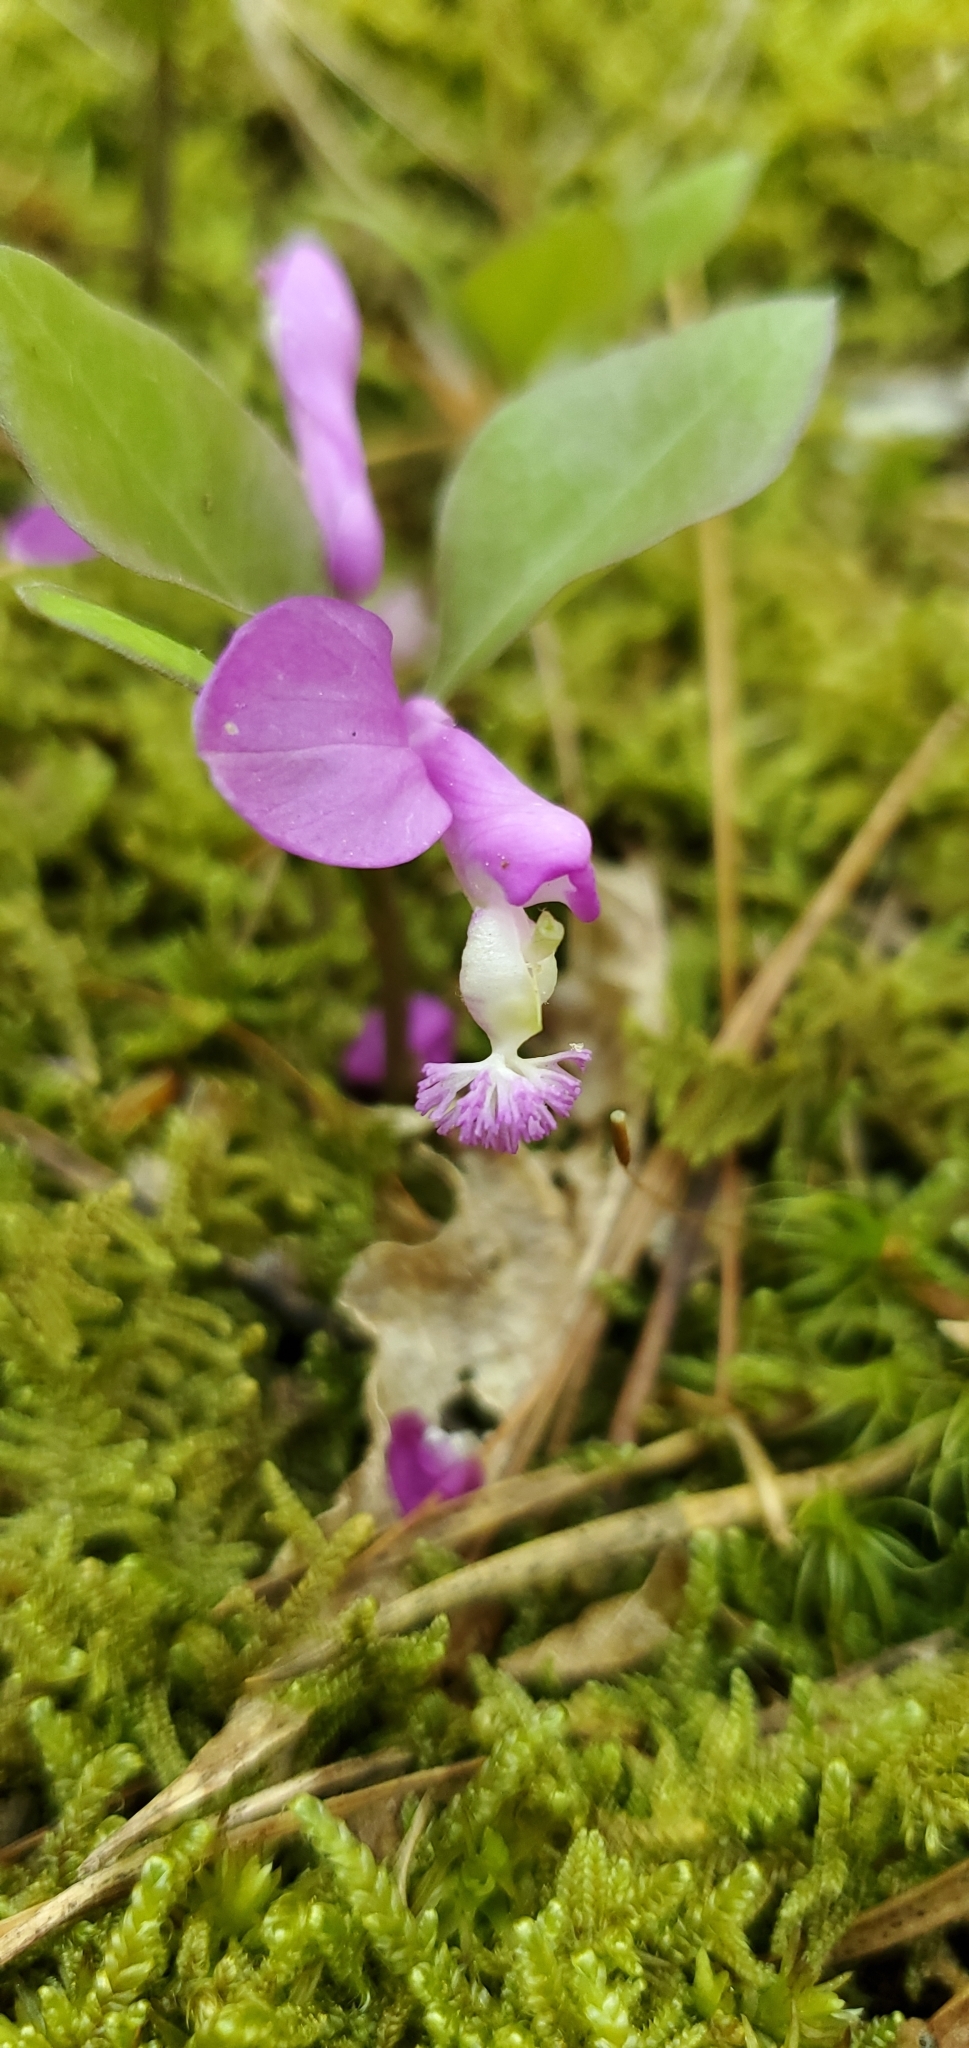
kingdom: Plantae
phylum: Tracheophyta
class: Magnoliopsida
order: Fabales
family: Polygalaceae
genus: Polygaloides
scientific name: Polygaloides paucifolia
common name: Bird-on-the-wing
